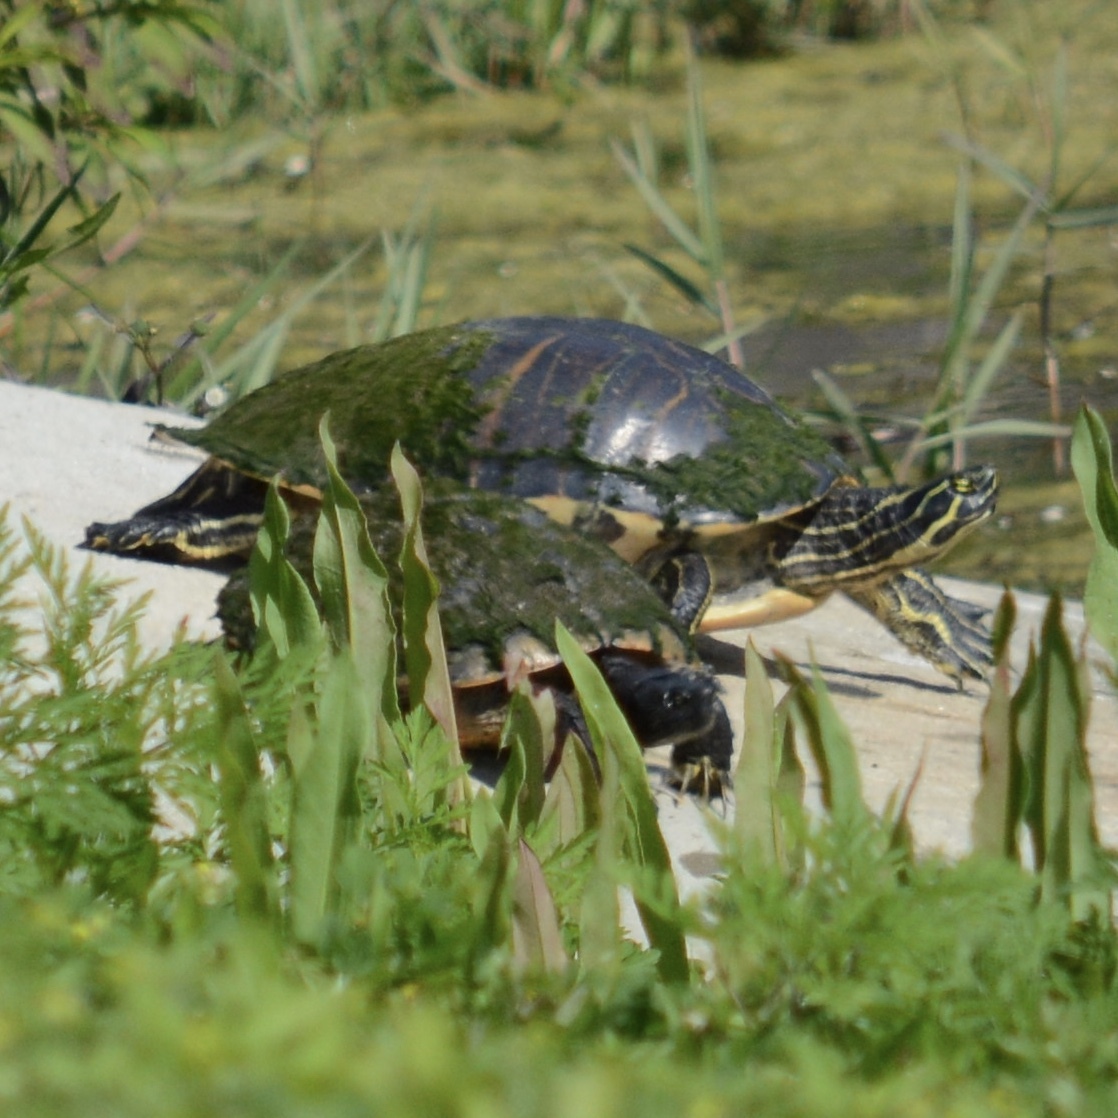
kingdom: Animalia
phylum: Chordata
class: Testudines
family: Emydidae
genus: Pseudemys
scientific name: Pseudemys peninsularis
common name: Peninsula cooter
